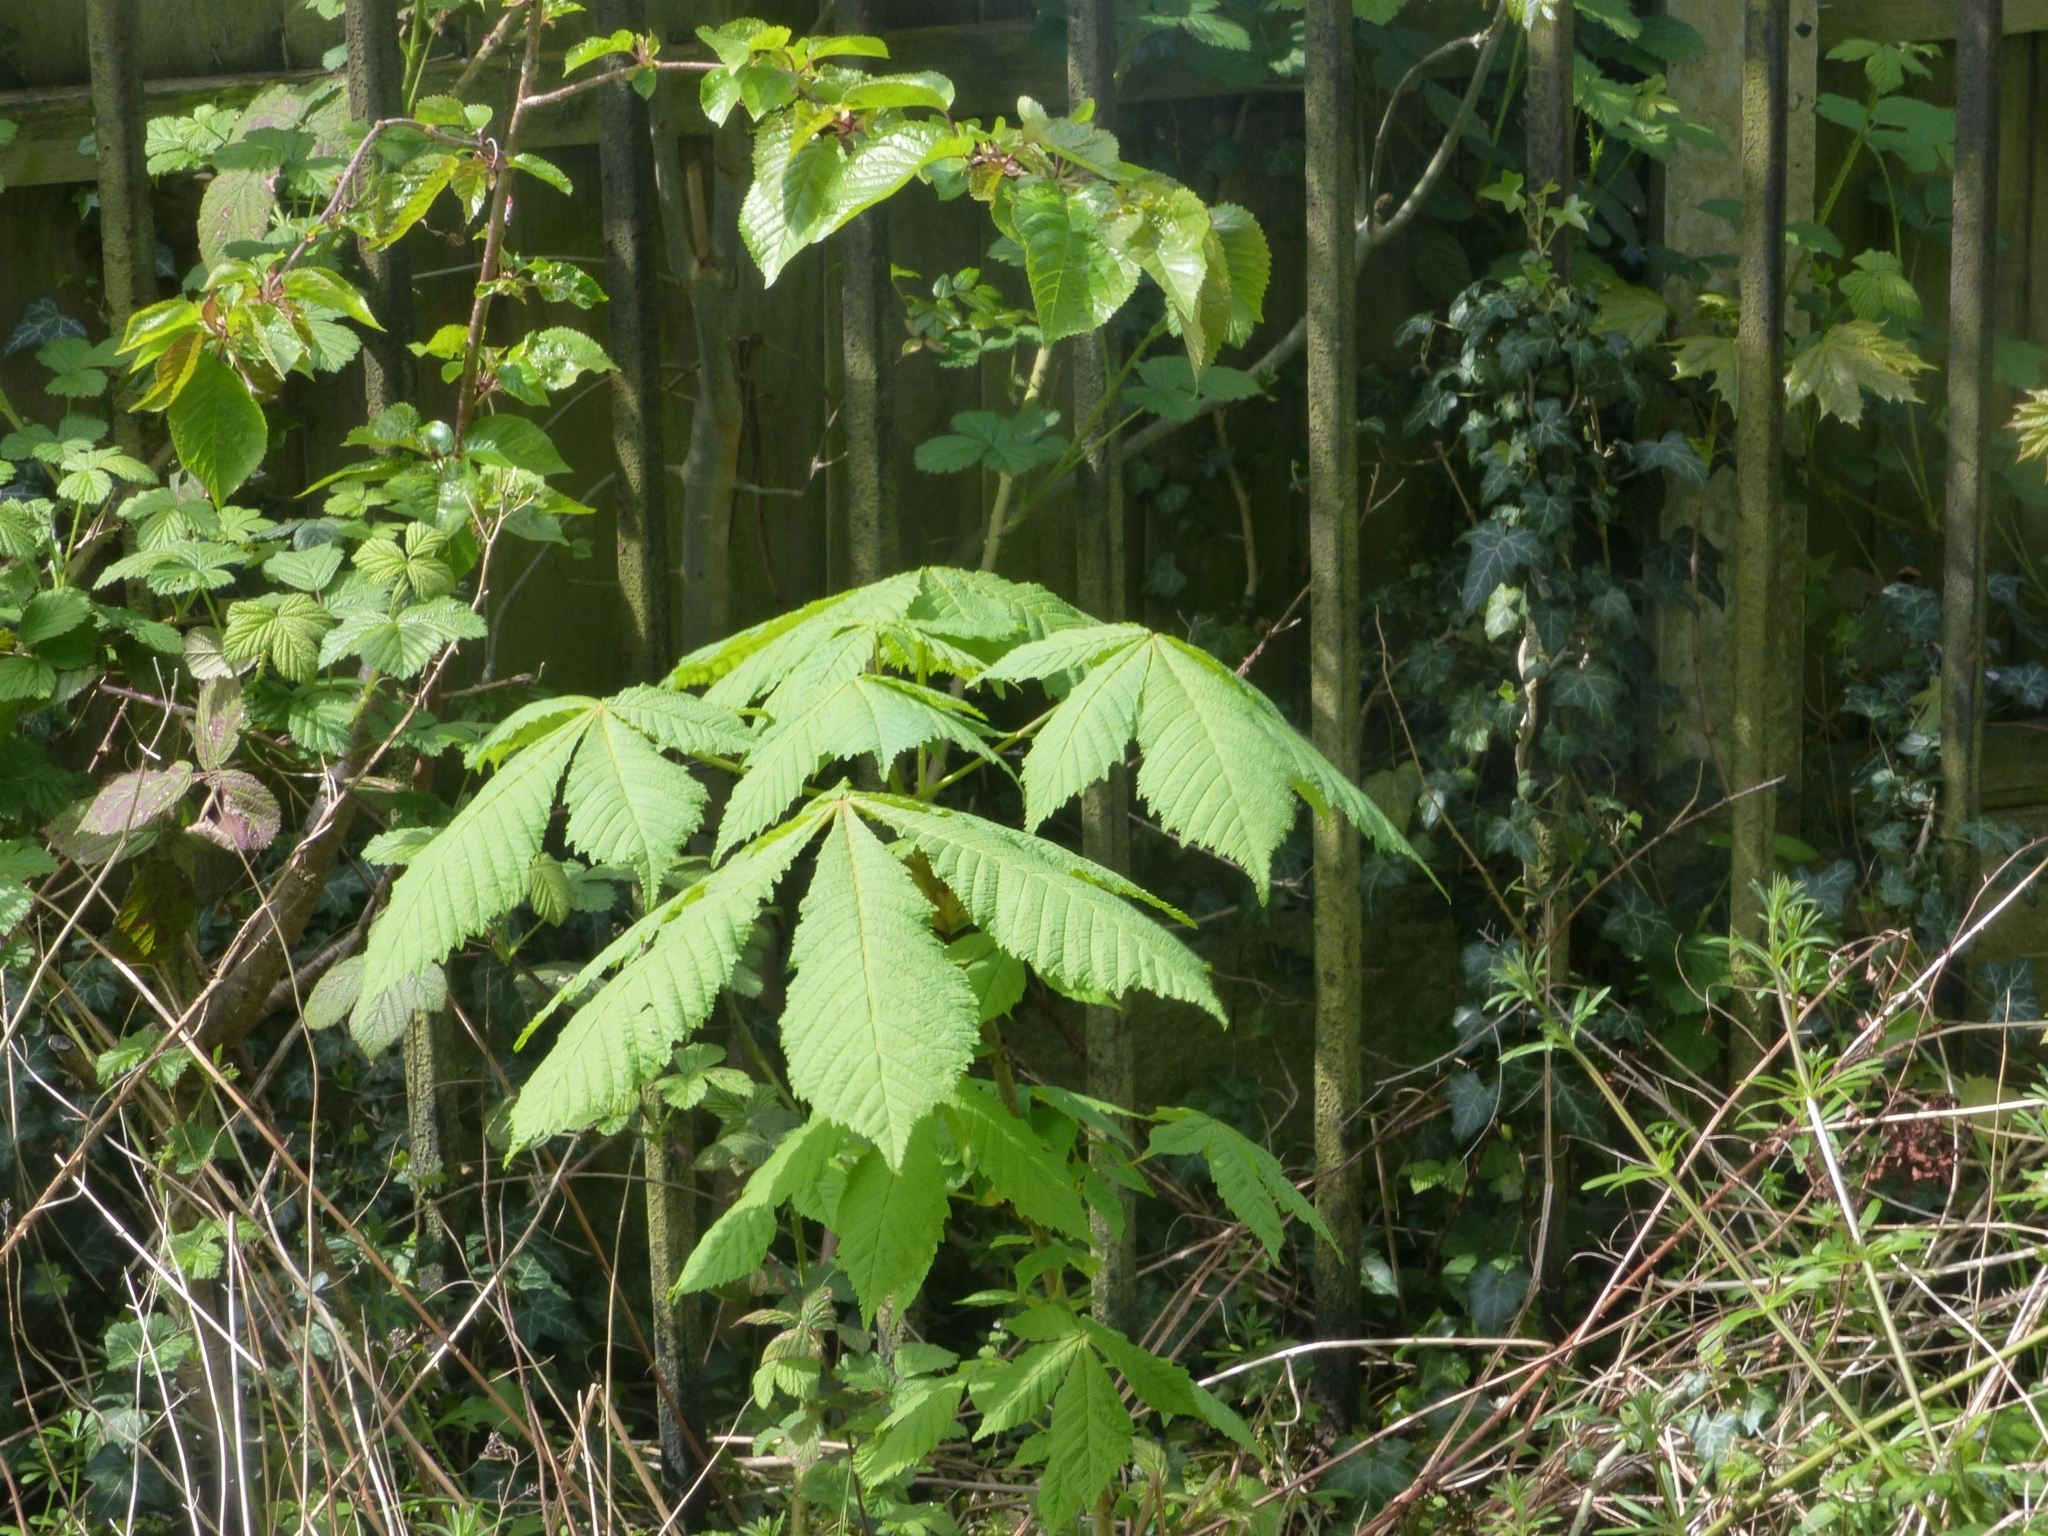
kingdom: Plantae
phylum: Tracheophyta
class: Magnoliopsida
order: Sapindales
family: Sapindaceae
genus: Aesculus
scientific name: Aesculus hippocastanum
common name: Horse-chestnut
